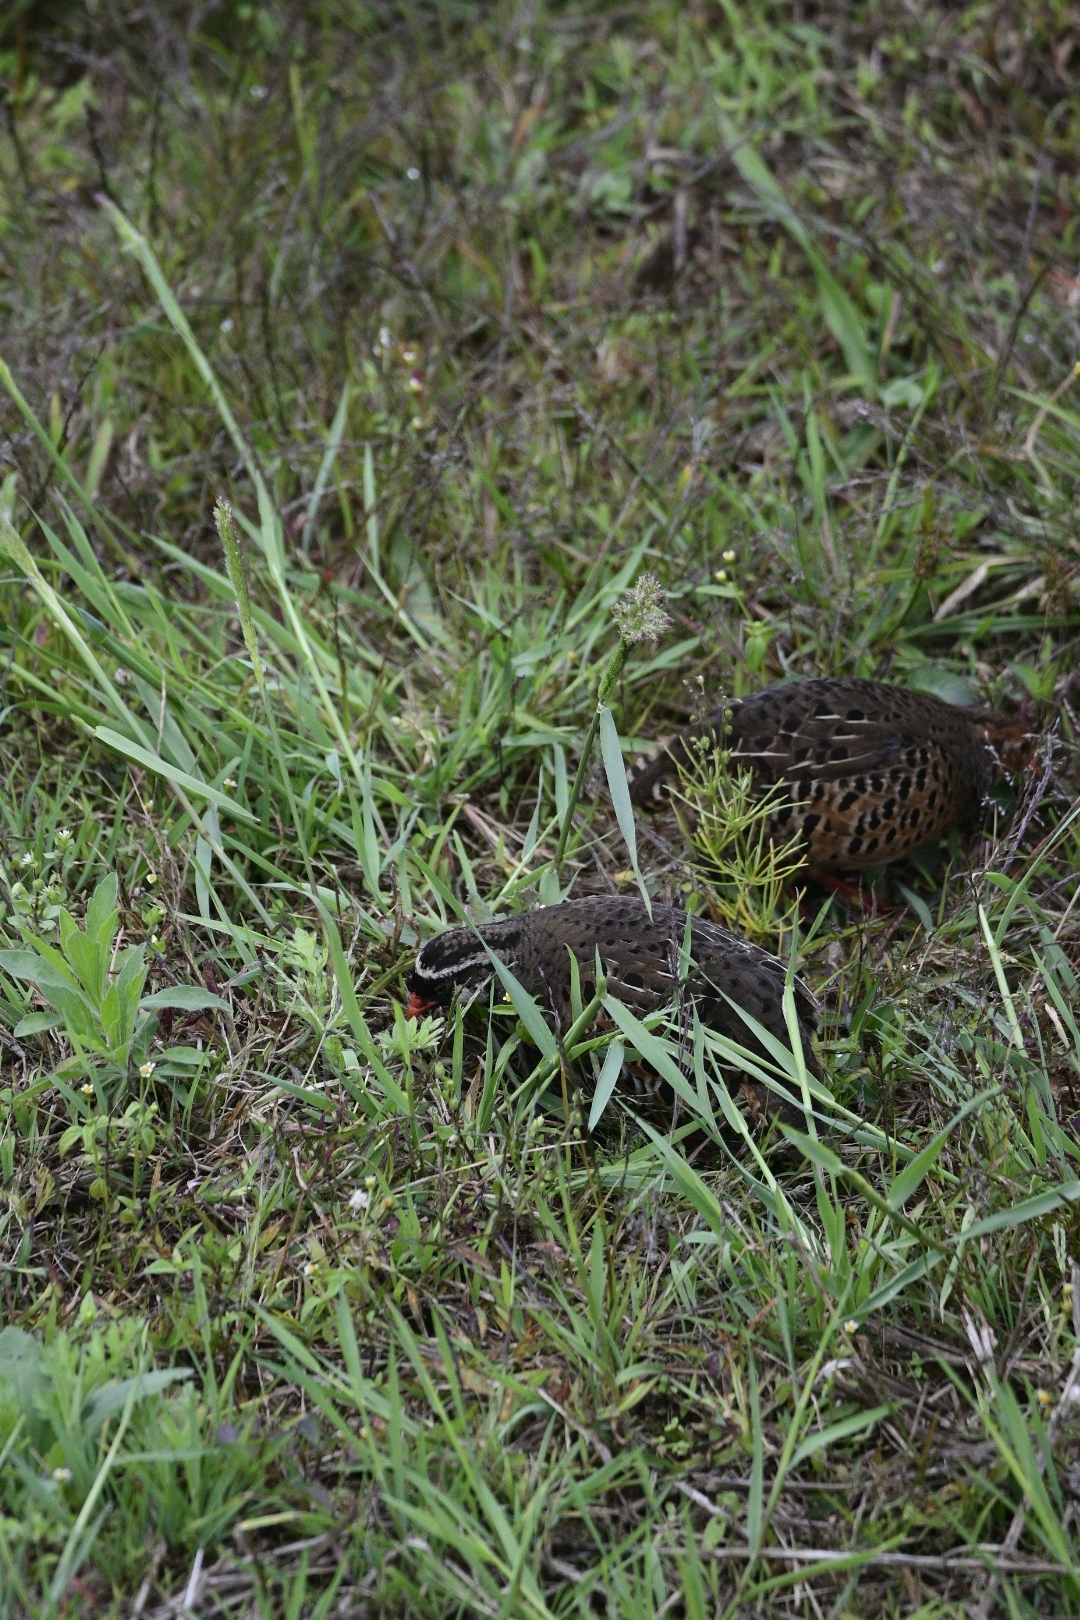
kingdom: Animalia
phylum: Chordata
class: Aves
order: Galliformes
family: Phasianidae
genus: Perdicula
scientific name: Perdicula erythrorhyncha
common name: Painted bush-quail
